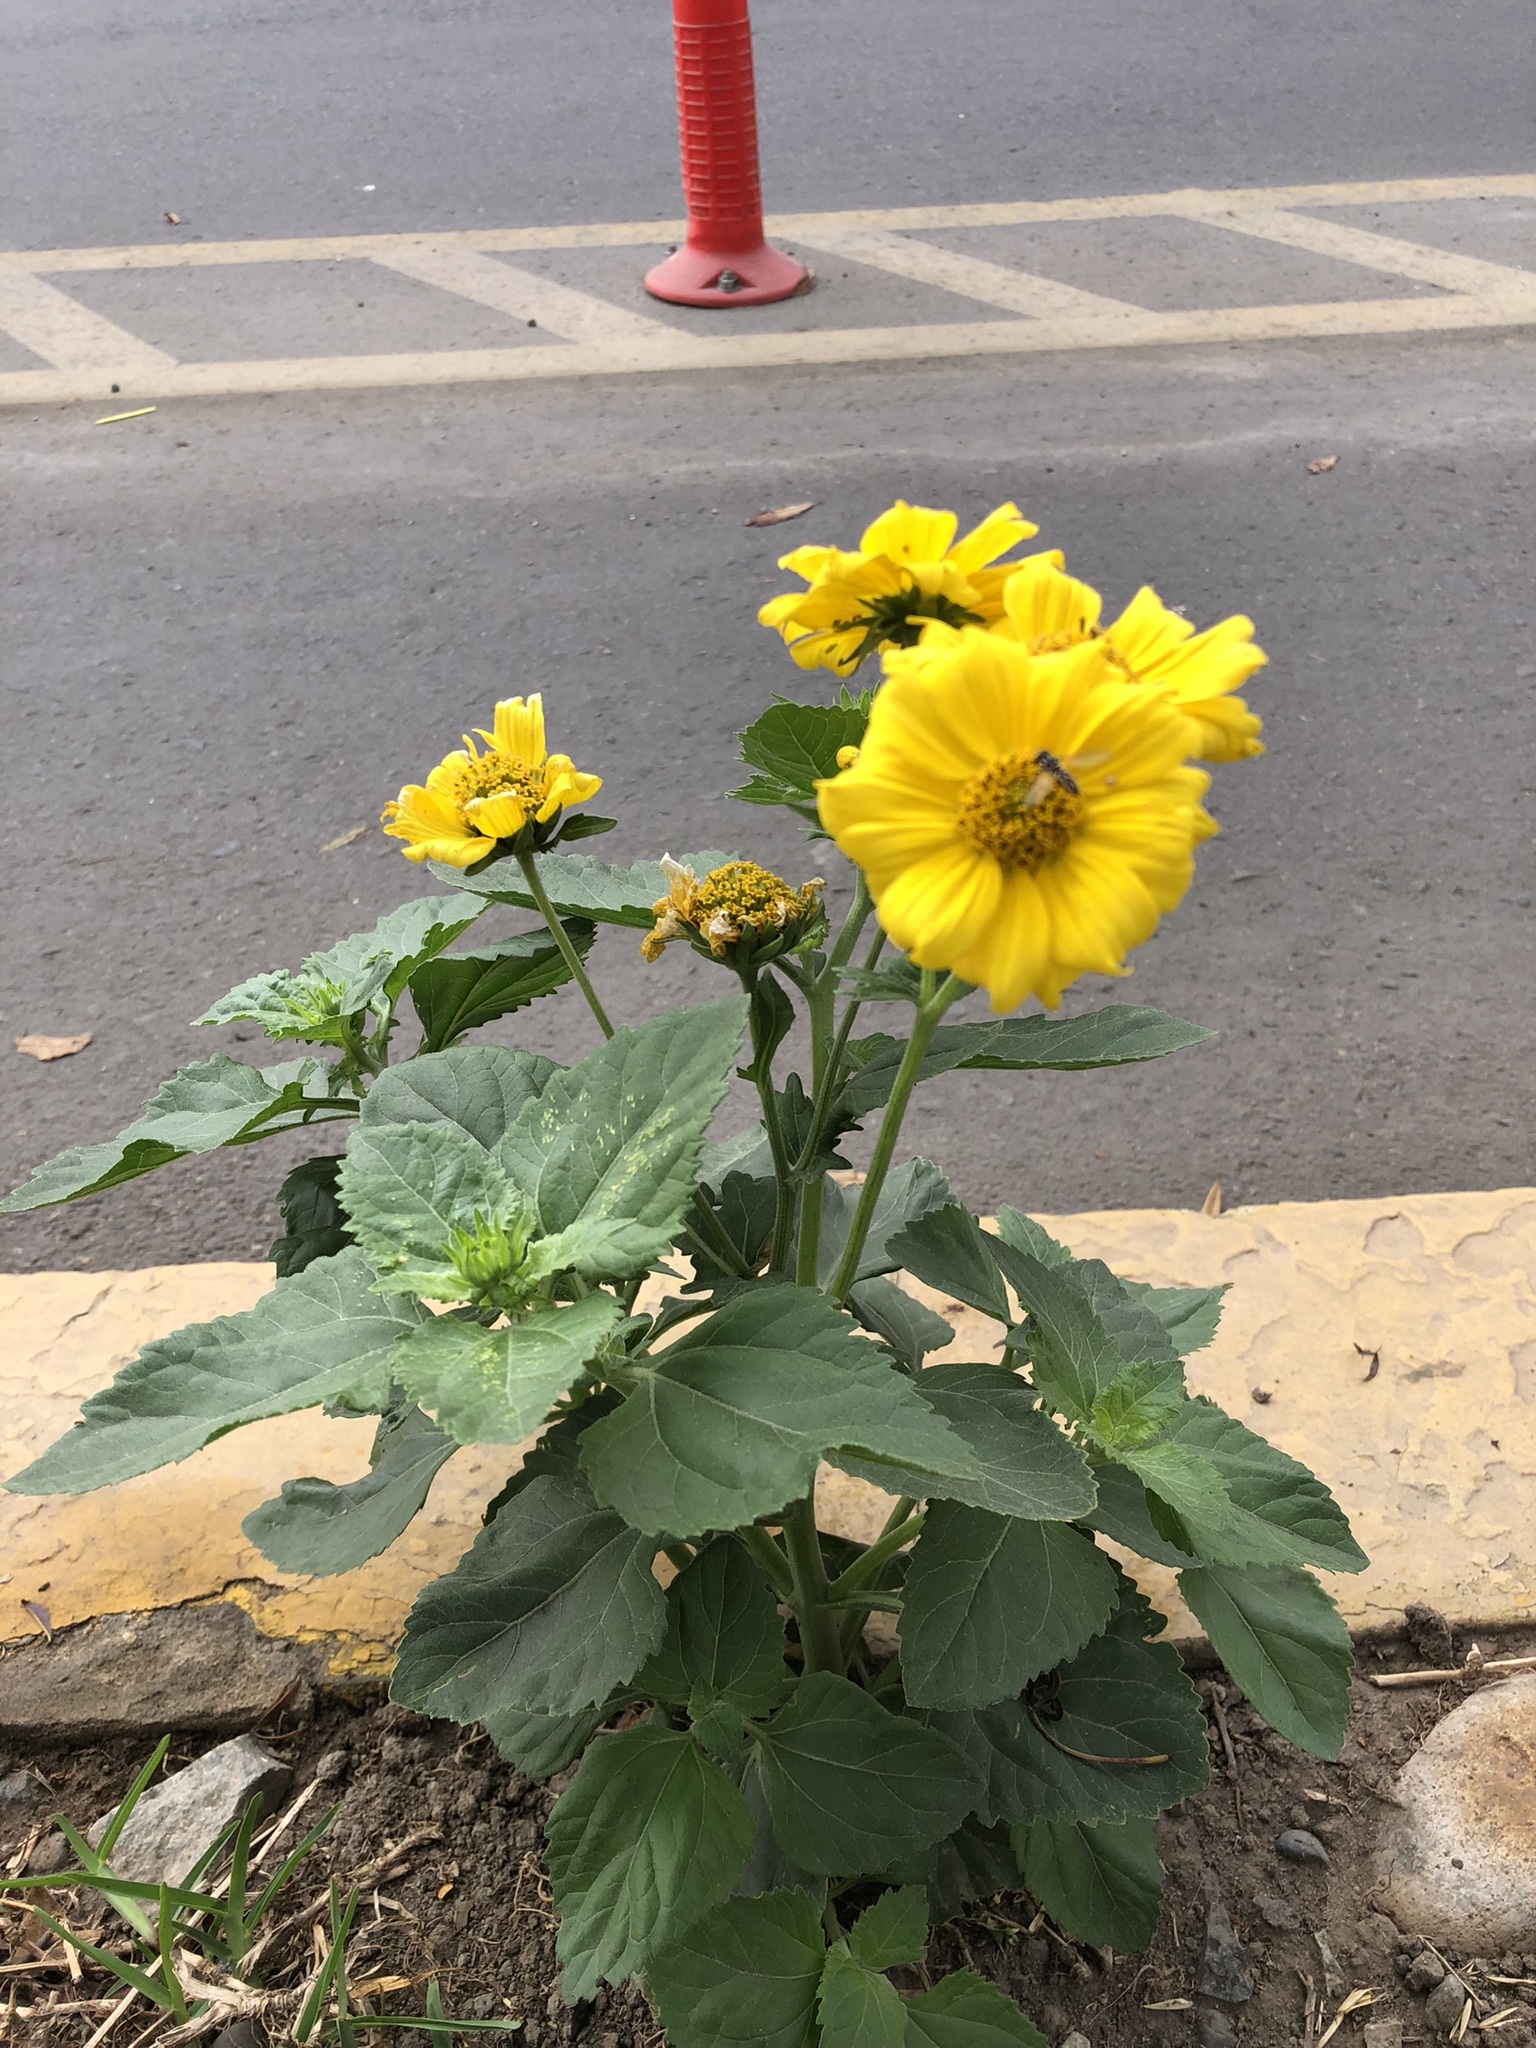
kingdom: Plantae
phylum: Tracheophyta
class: Magnoliopsida
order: Asterales
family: Asteraceae
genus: Verbesina
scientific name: Verbesina encelioides
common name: Golden crownbeard
